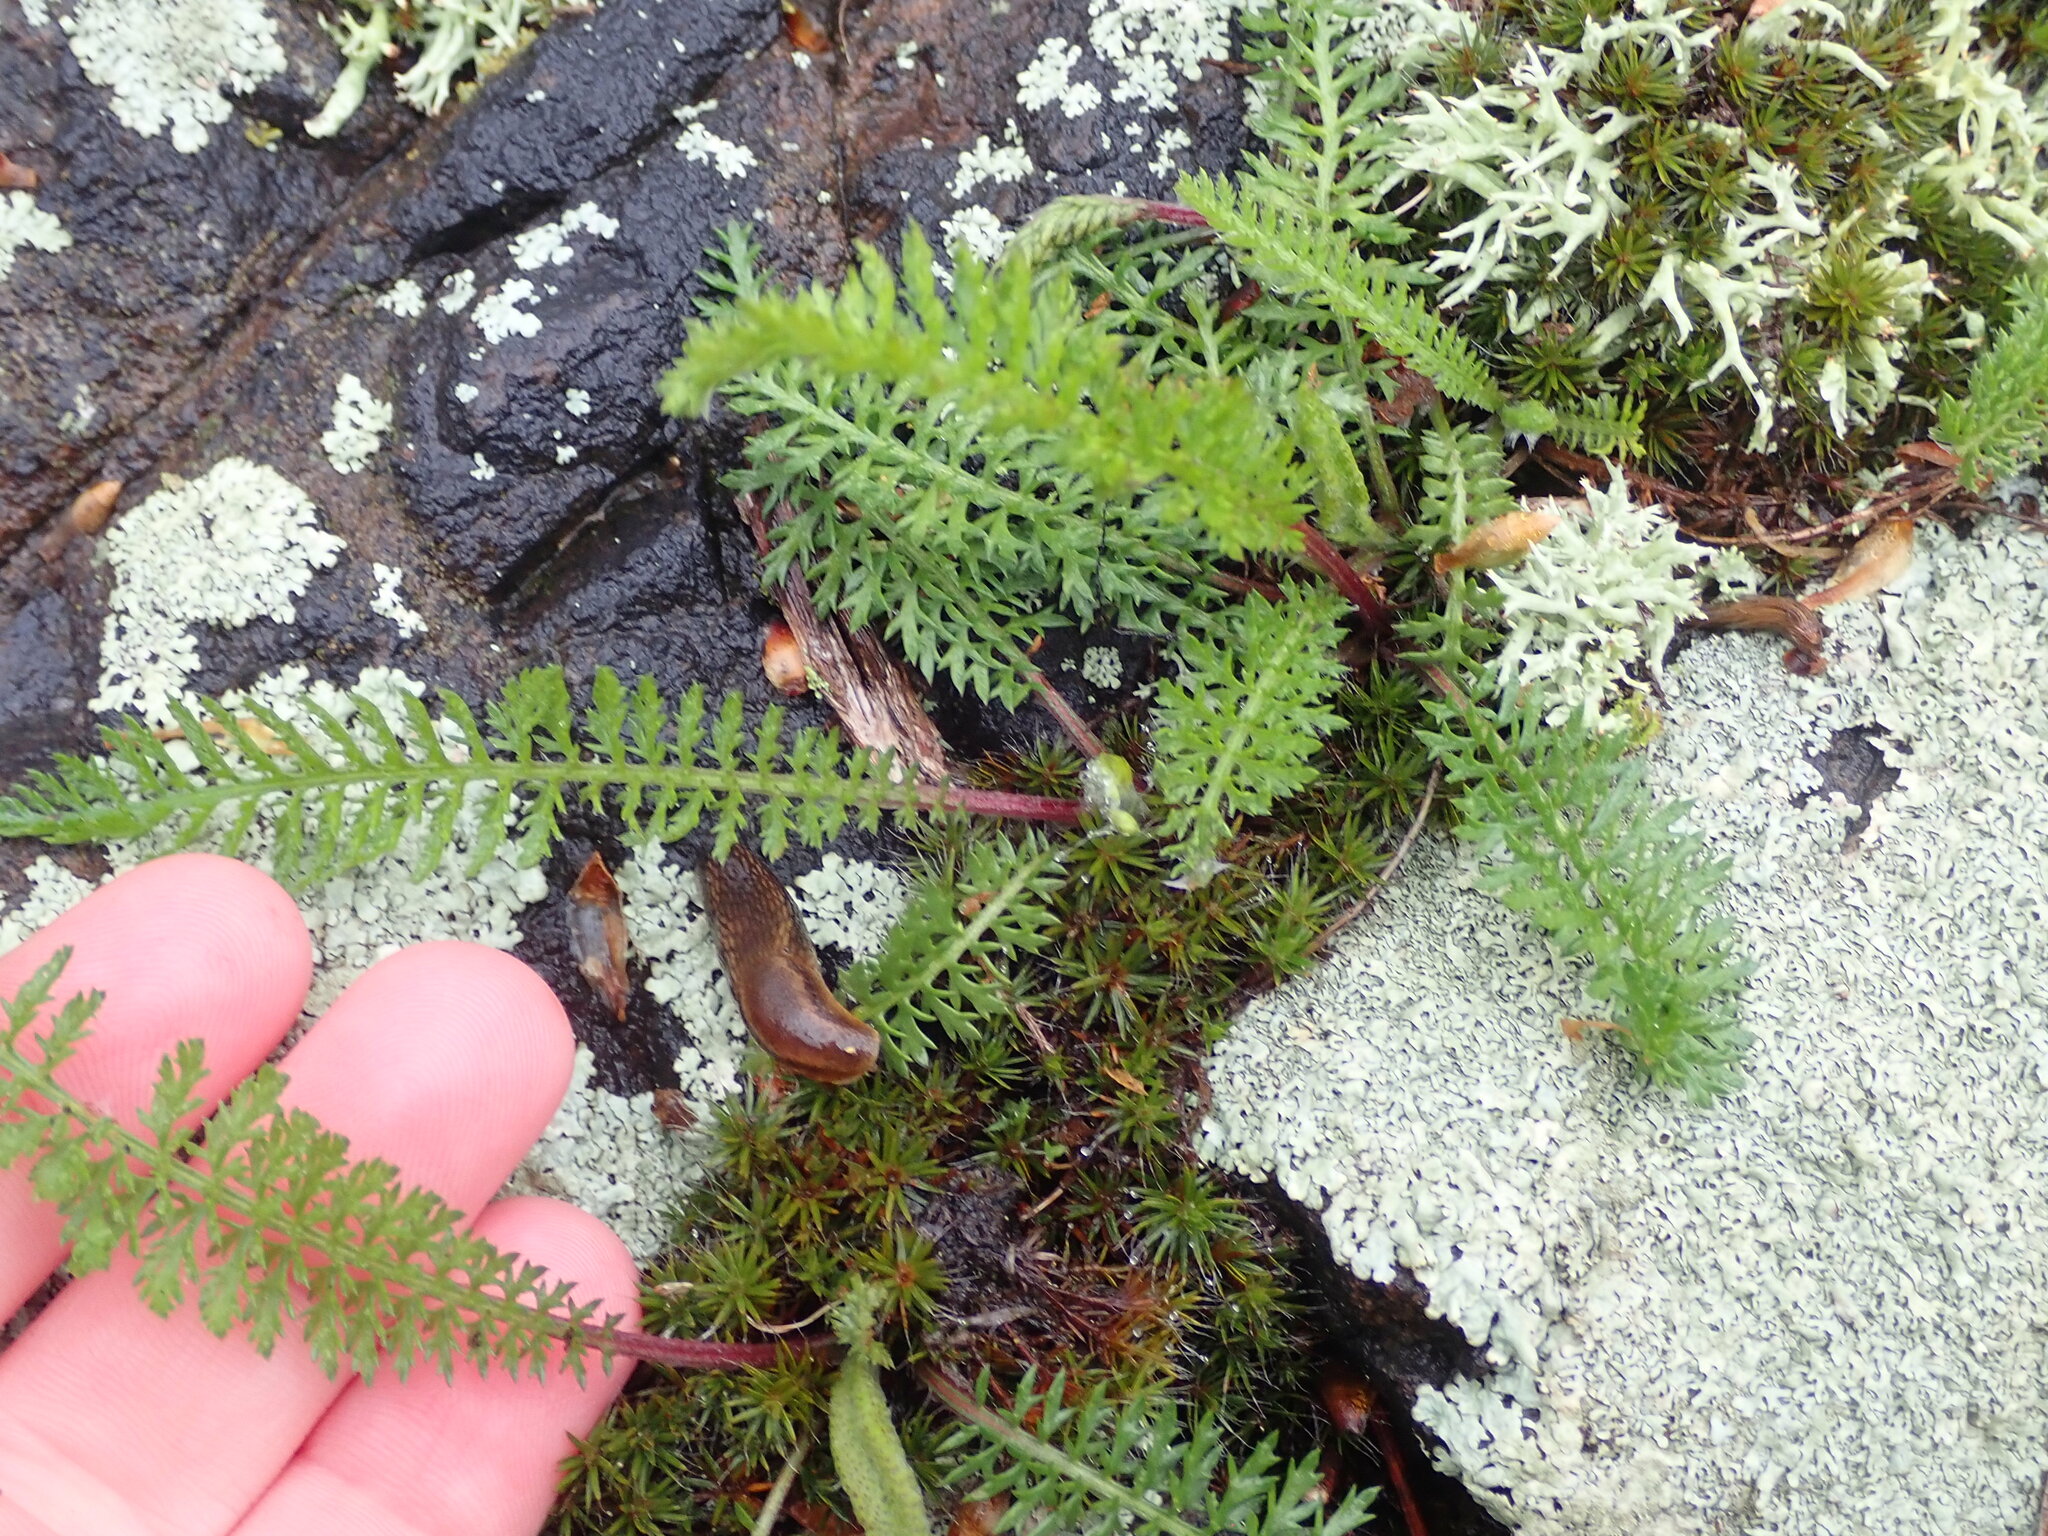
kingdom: Plantae
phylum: Tracheophyta
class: Magnoliopsida
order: Asterales
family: Asteraceae
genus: Achillea
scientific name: Achillea millefolium
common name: Yarrow
